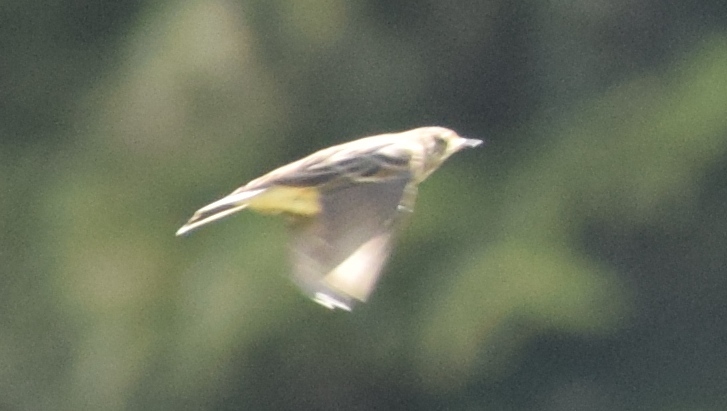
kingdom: Animalia
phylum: Chordata
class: Aves
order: Passeriformes
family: Motacillidae
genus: Anthus
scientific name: Anthus spinoletta
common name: Water pipit
